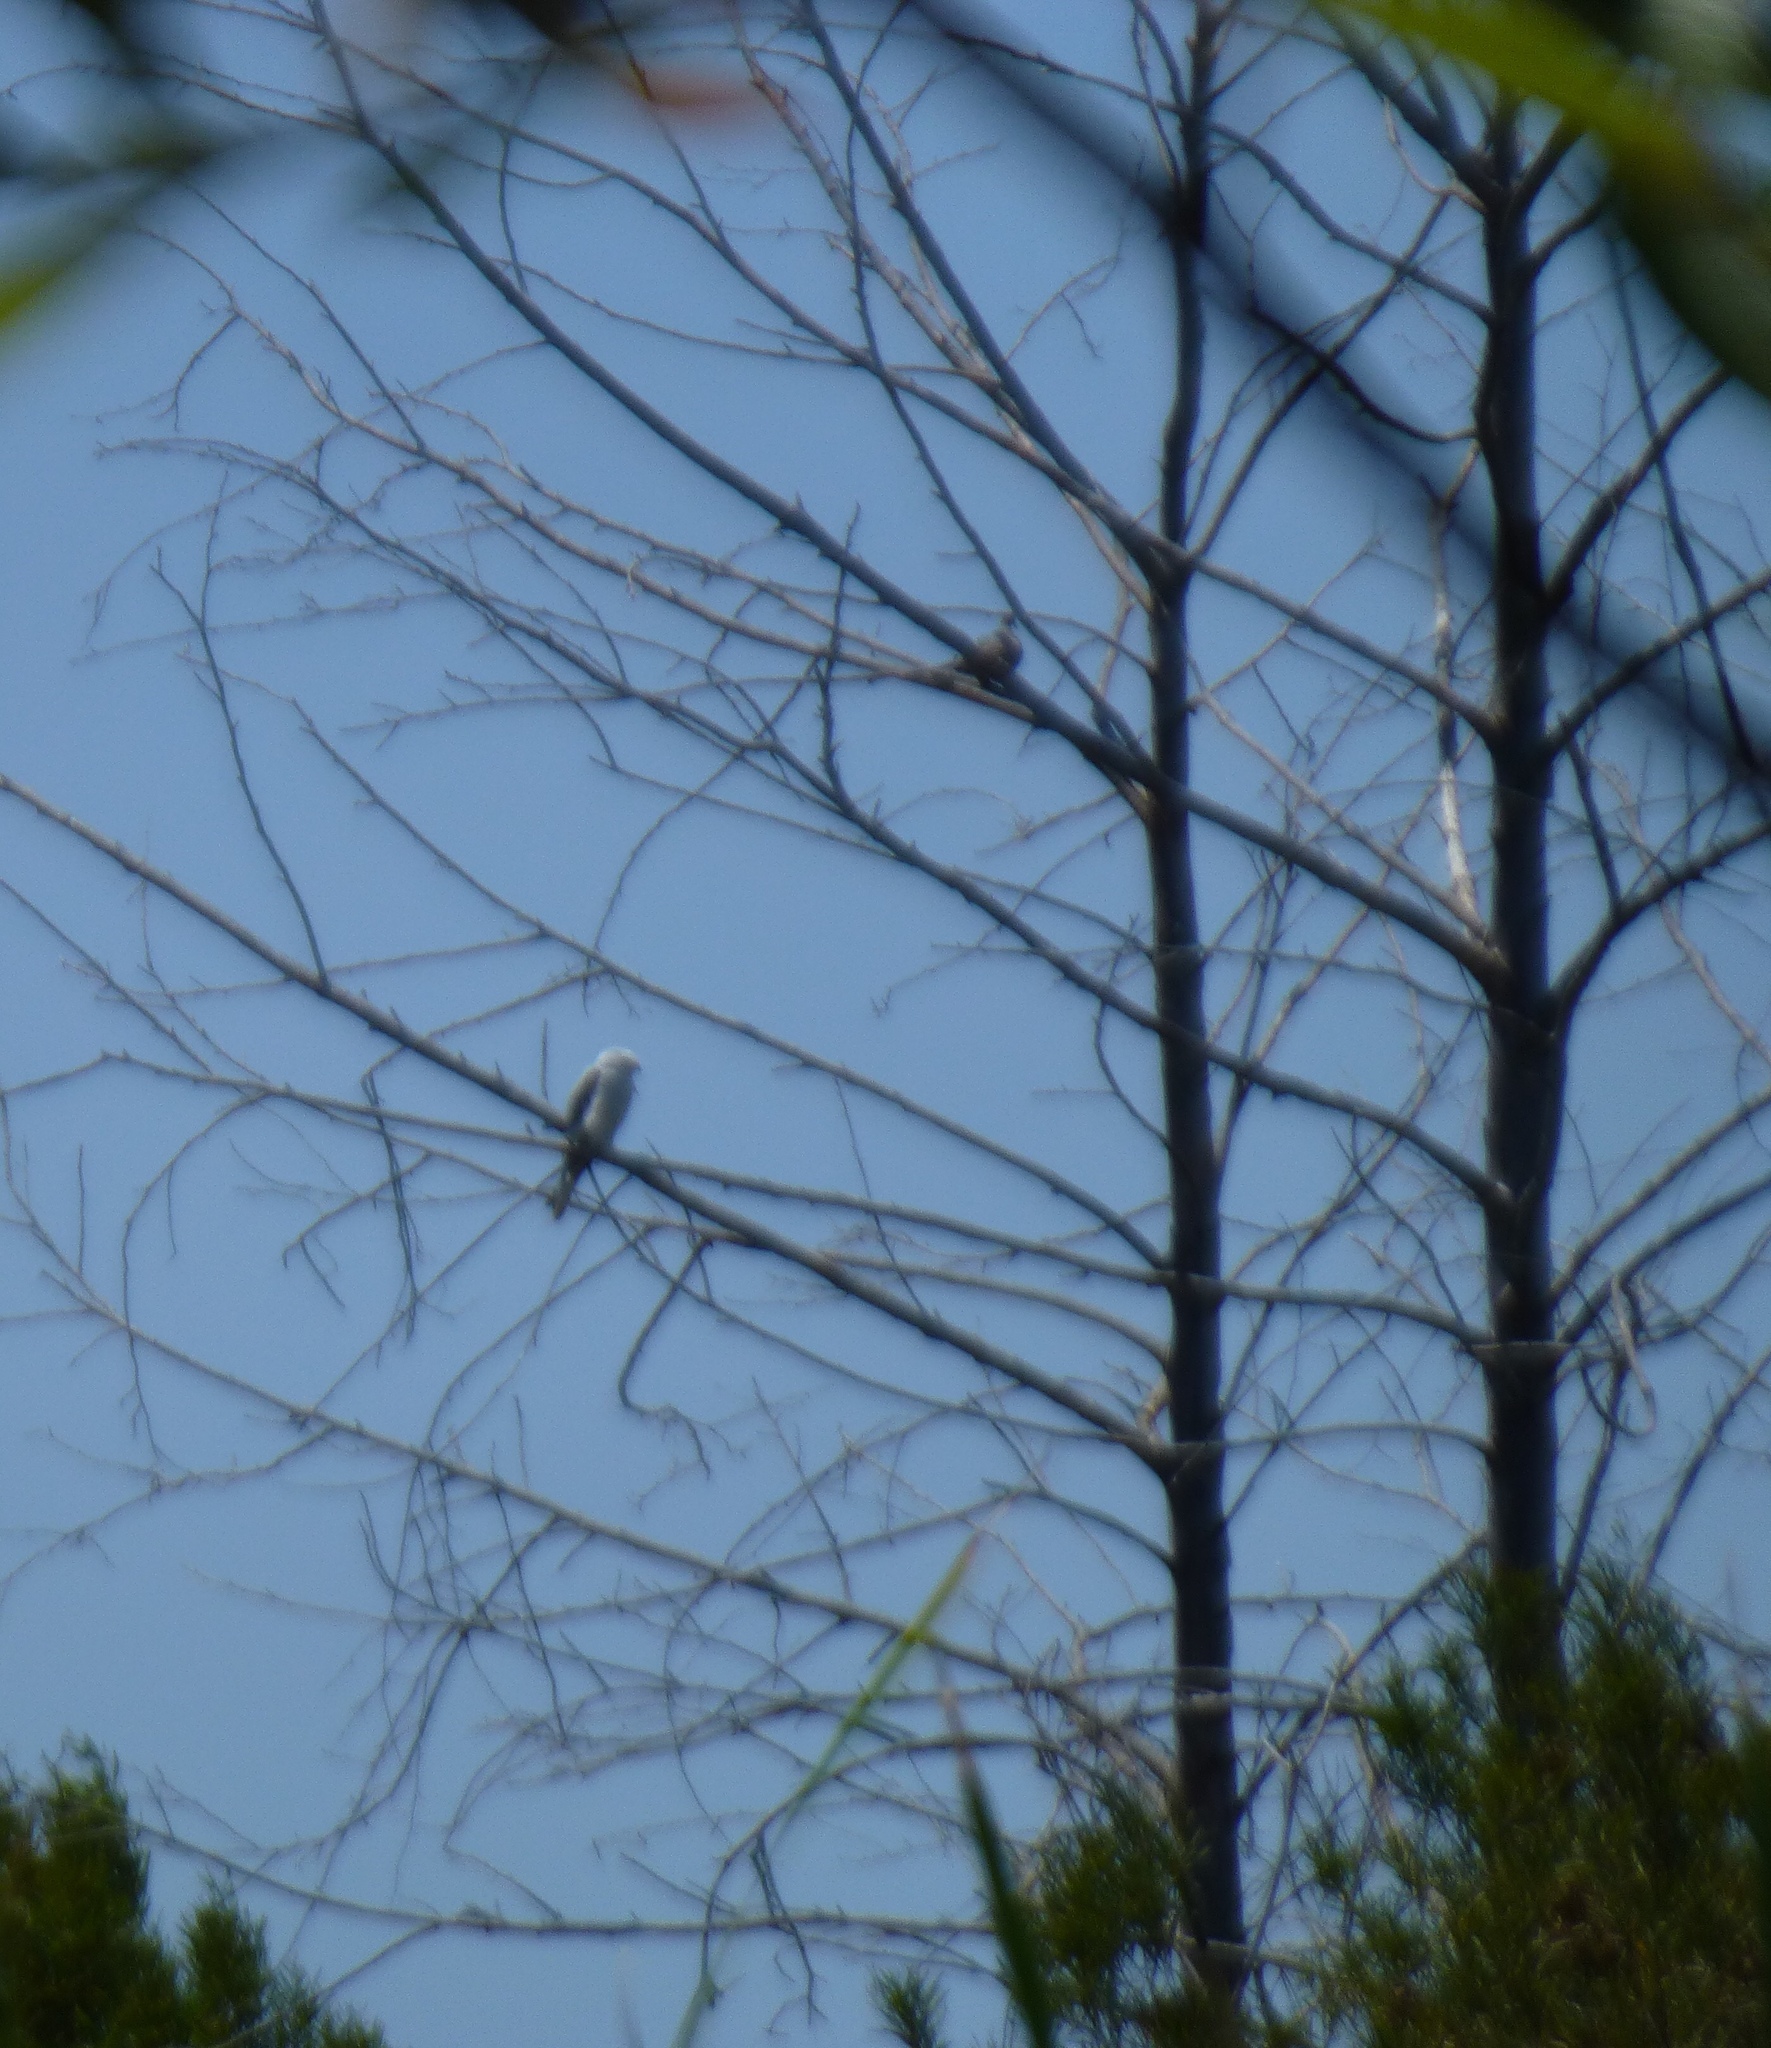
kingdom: Animalia
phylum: Chordata
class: Aves
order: Accipitriformes
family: Accipitridae
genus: Elanus
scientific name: Elanus leucurus
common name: White-tailed kite
